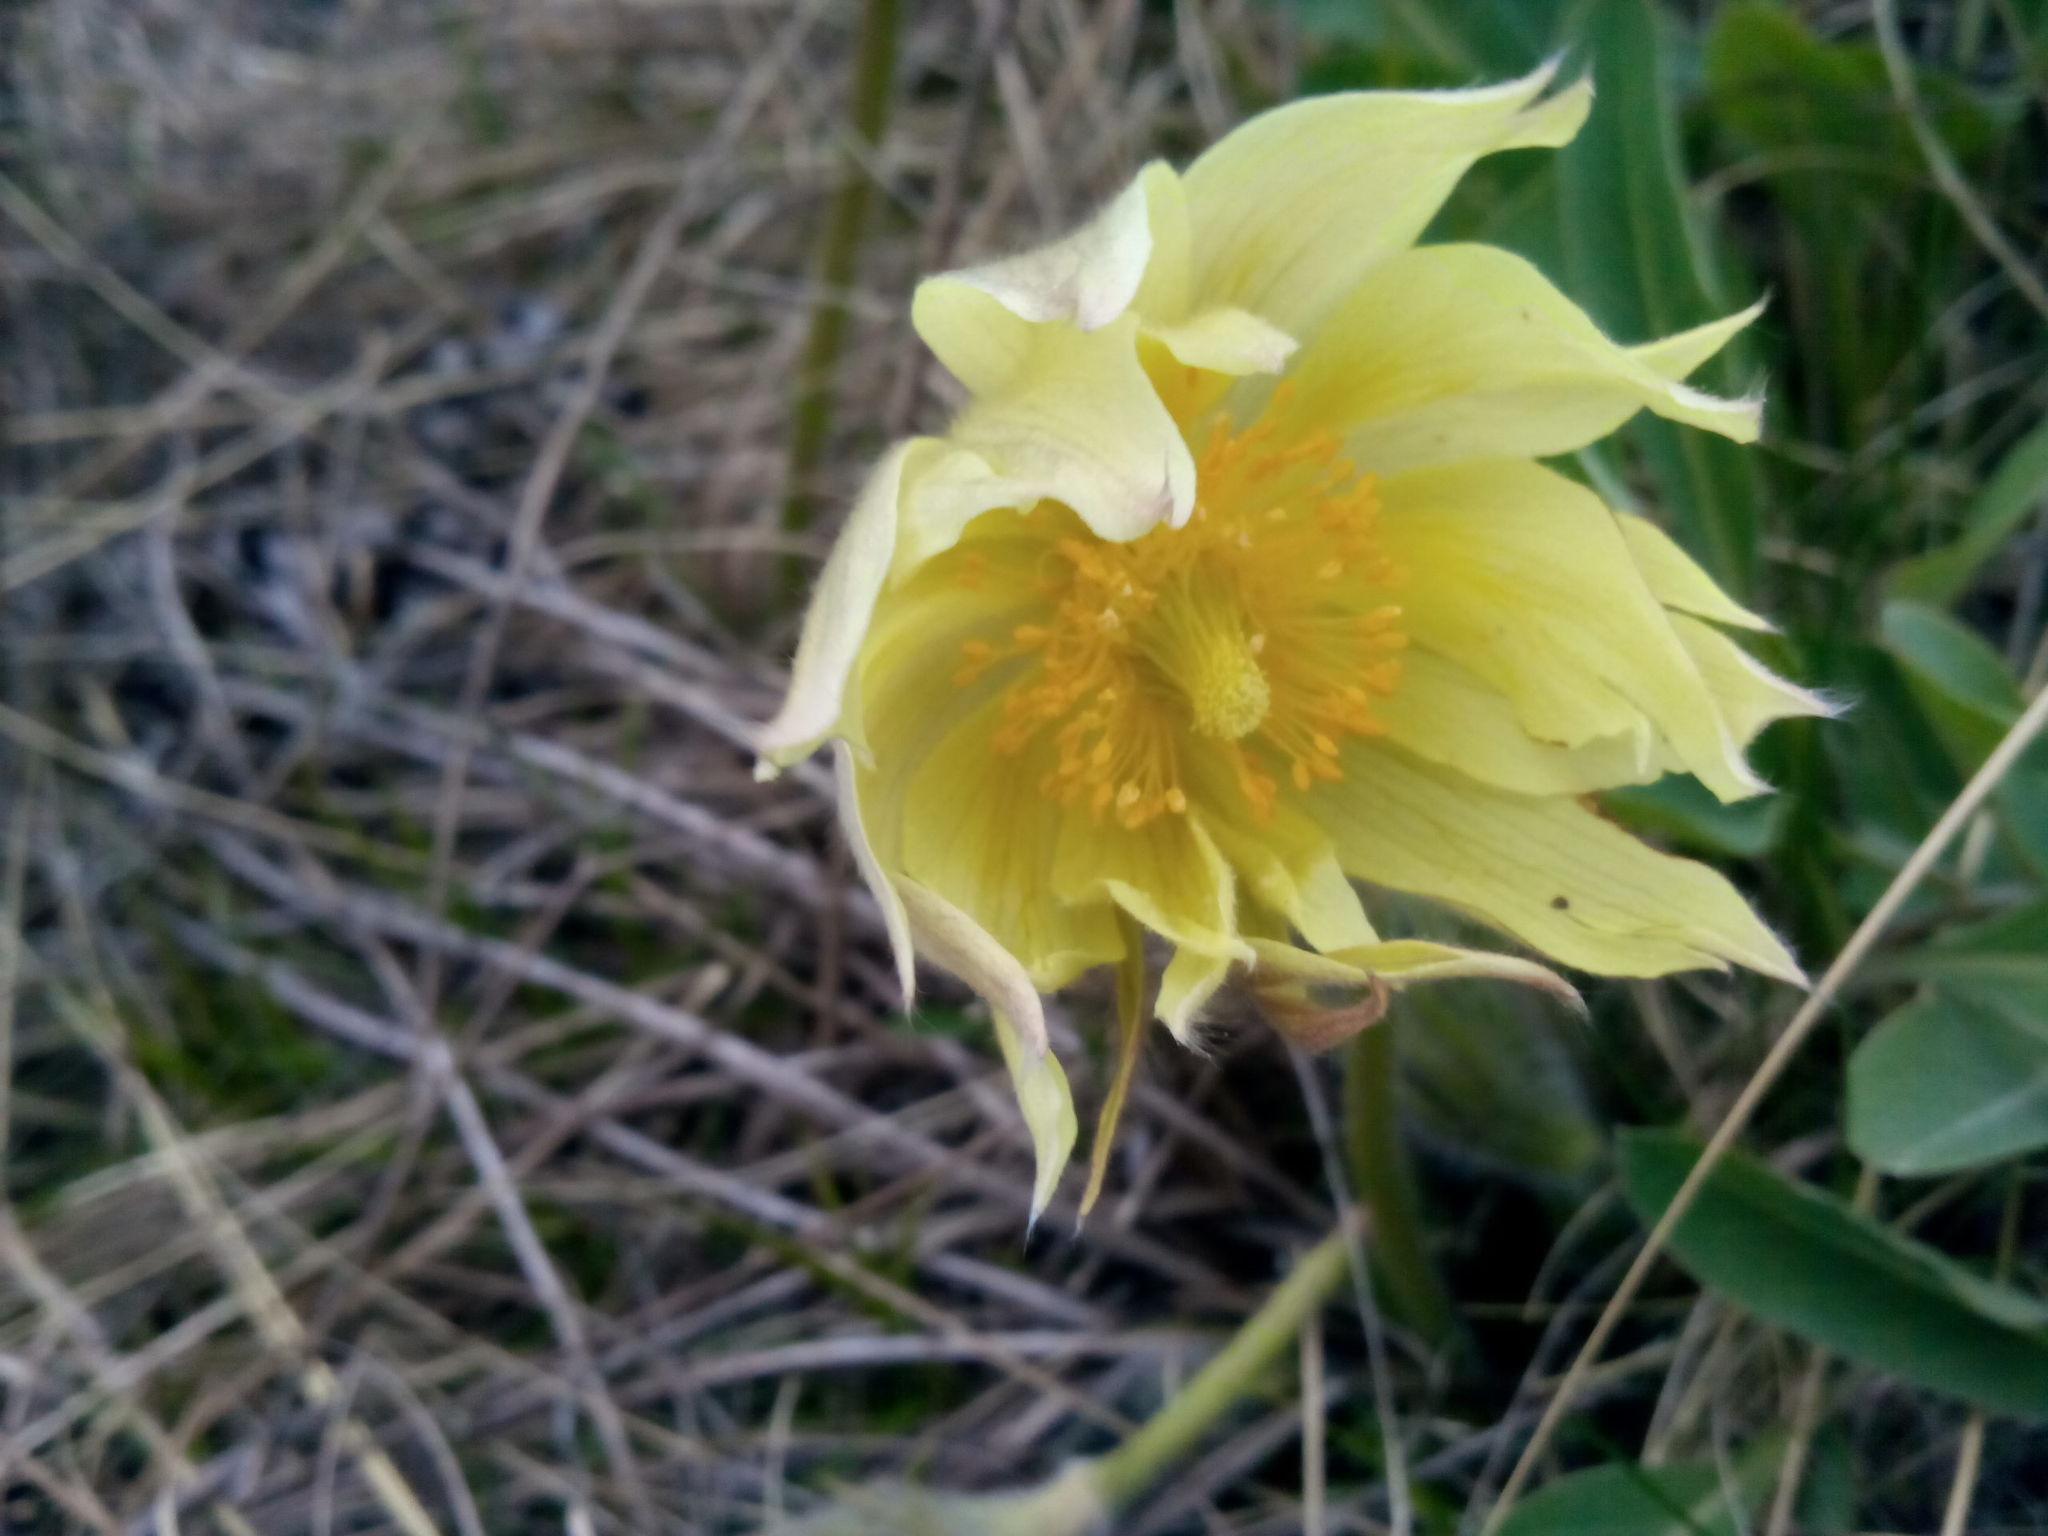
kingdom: Plantae
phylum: Tracheophyta
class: Magnoliopsida
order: Ranunculales
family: Ranunculaceae
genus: Pulsatilla
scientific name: Pulsatilla patens
